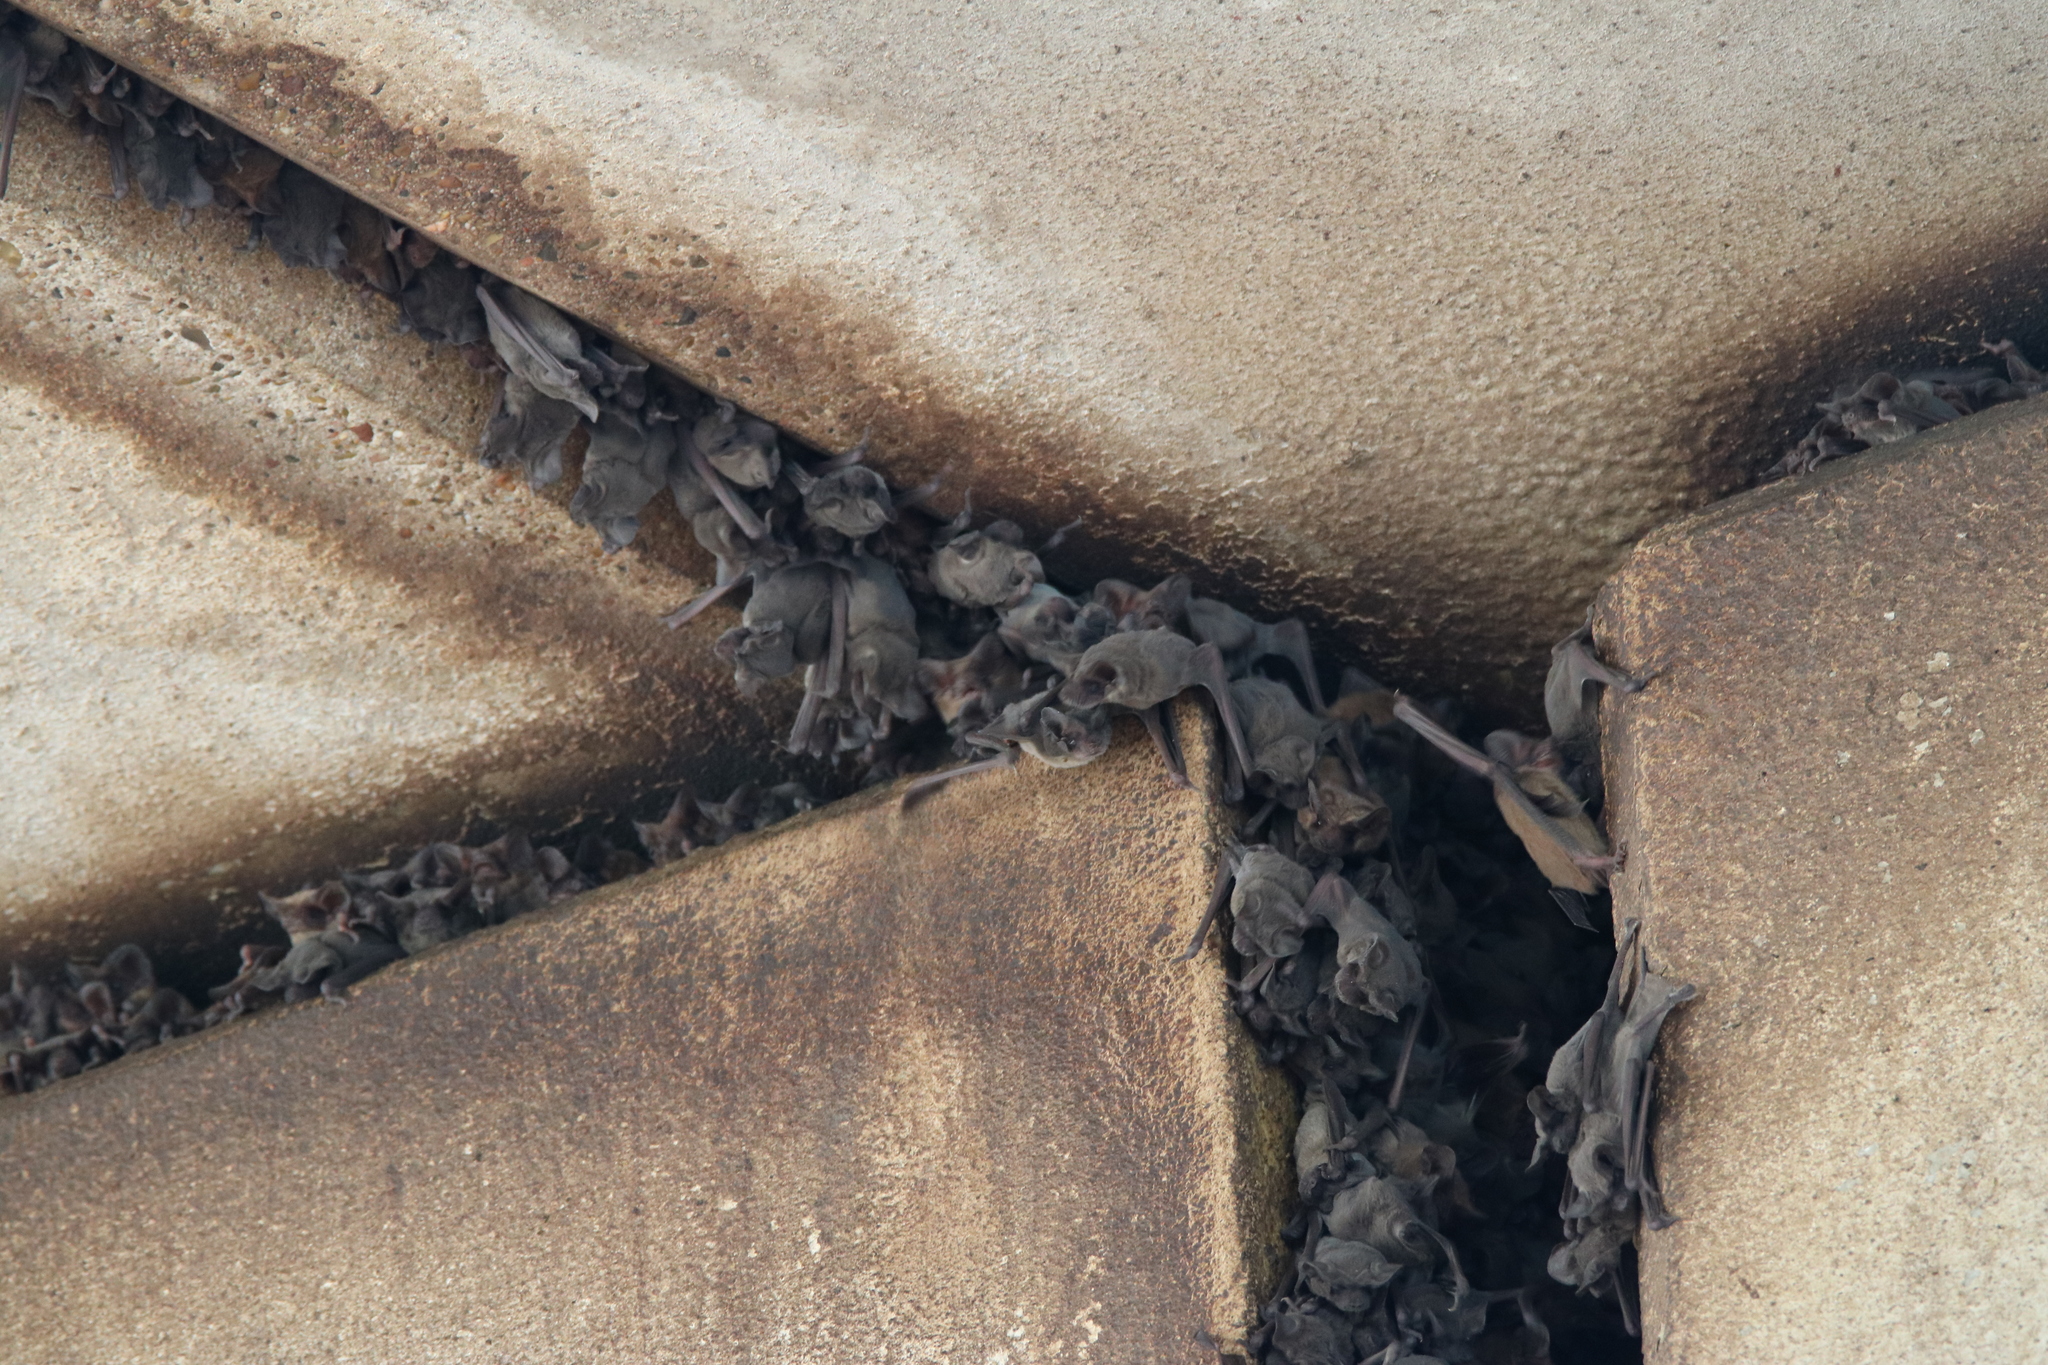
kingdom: Animalia
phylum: Chordata
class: Mammalia
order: Chiroptera
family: Molossidae
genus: Tadarida
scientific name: Tadarida brasiliensis
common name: Mexican free-tailed bat
